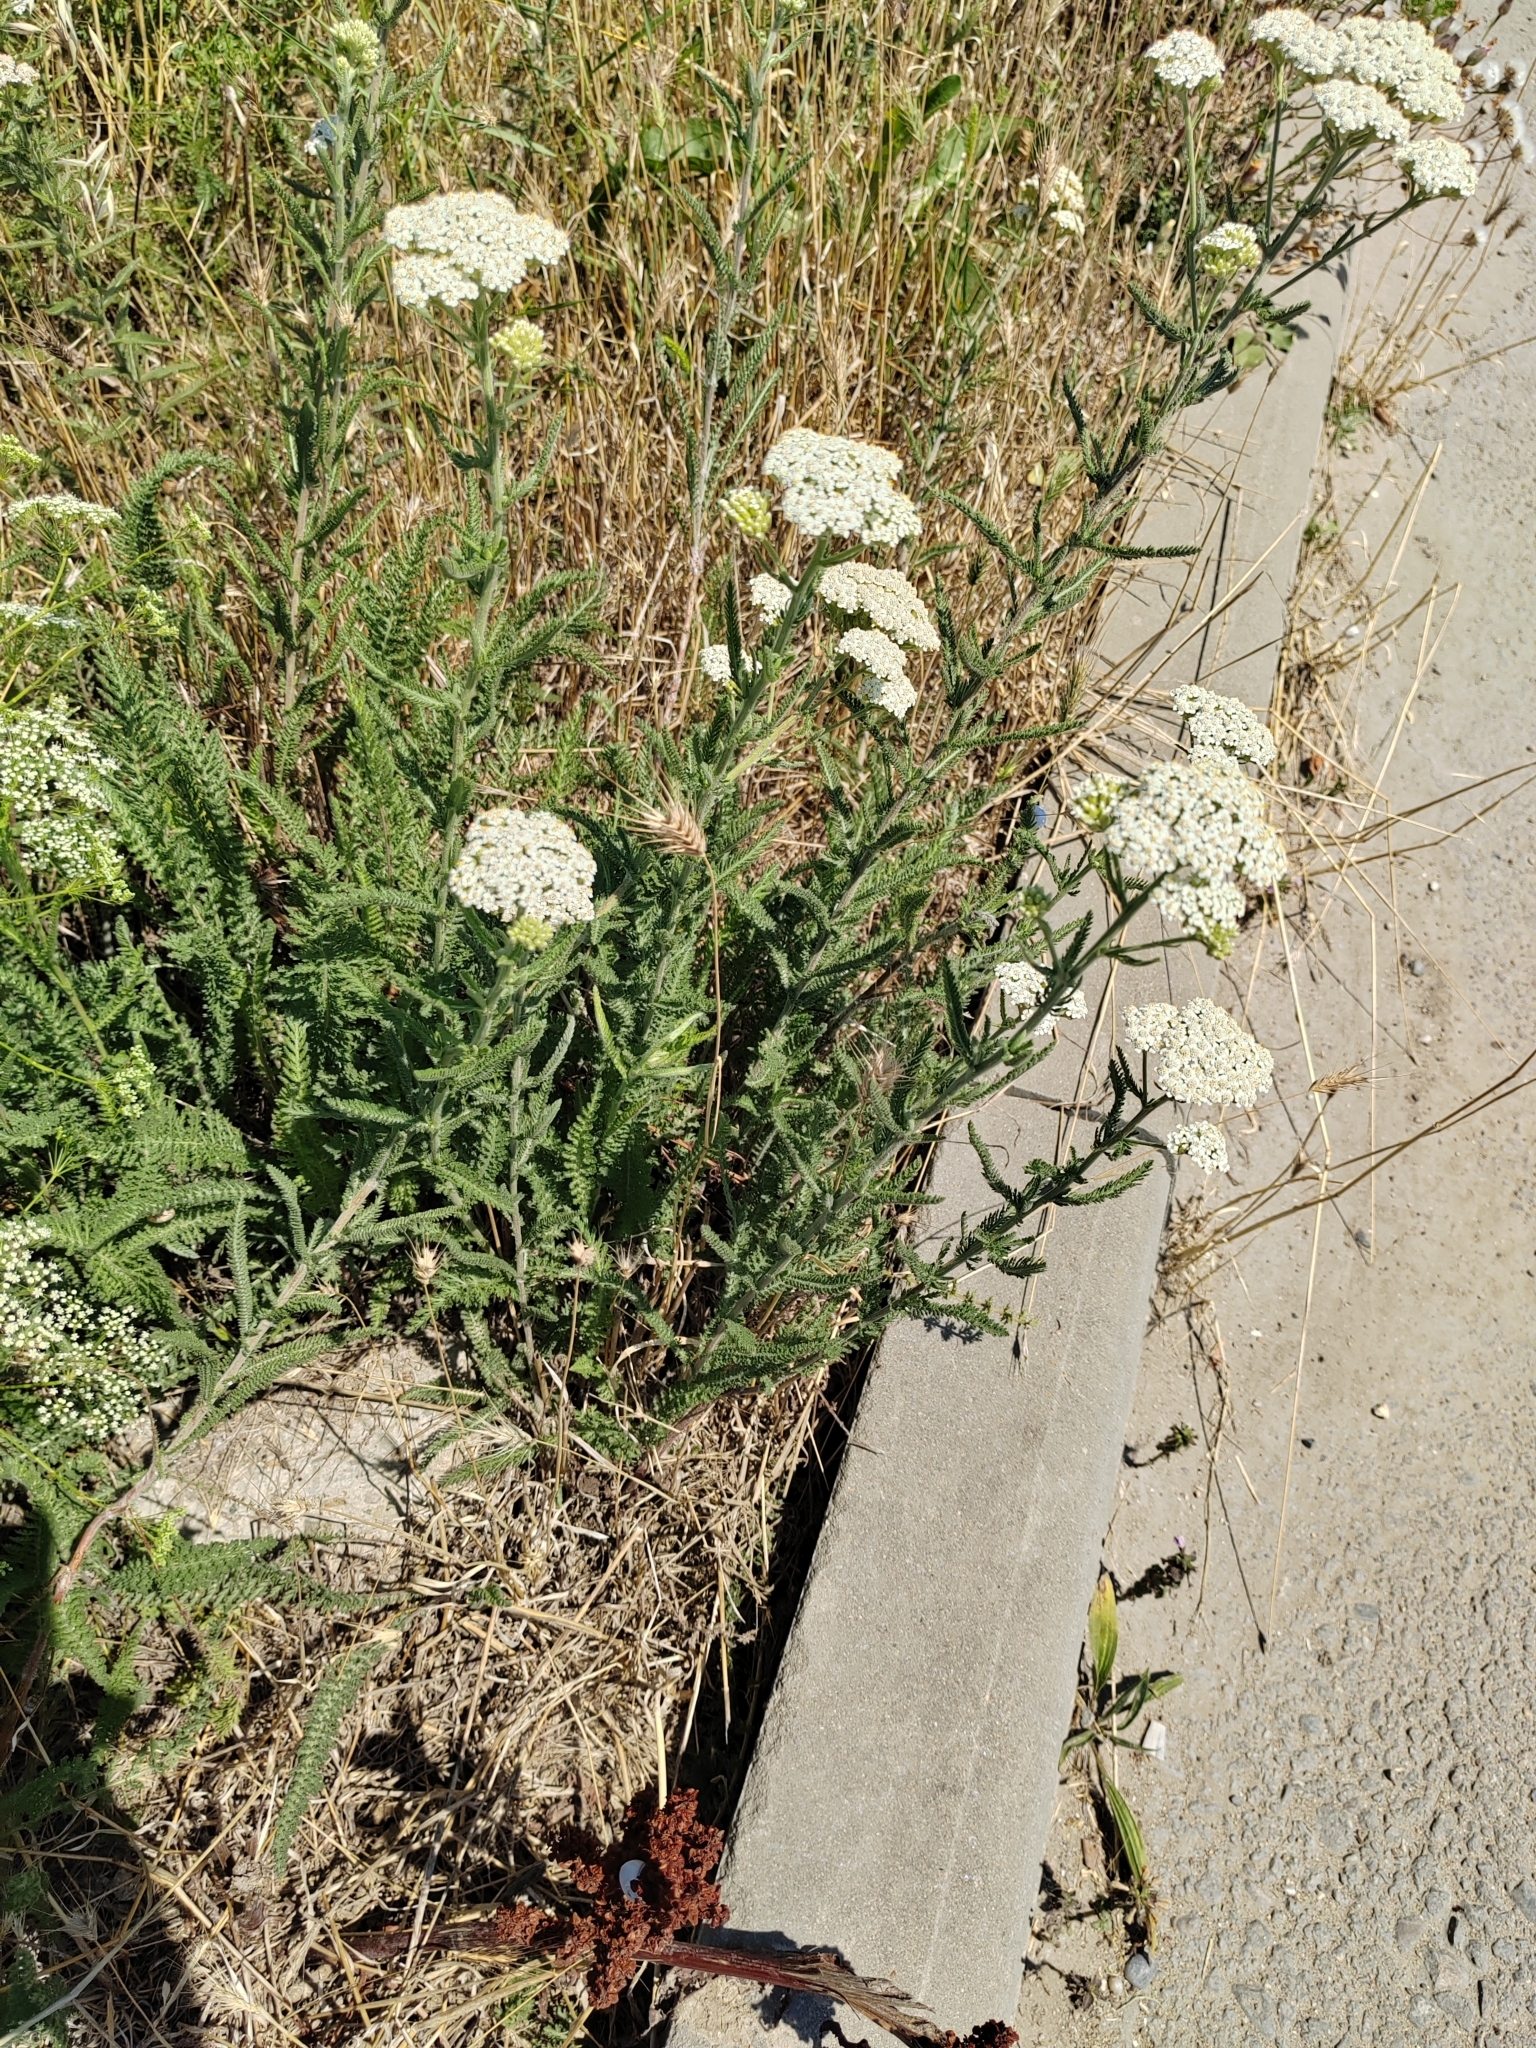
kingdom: Plantae
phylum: Tracheophyta
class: Magnoliopsida
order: Asterales
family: Asteraceae
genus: Achillea
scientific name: Achillea setacea
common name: Bristly yarrow
